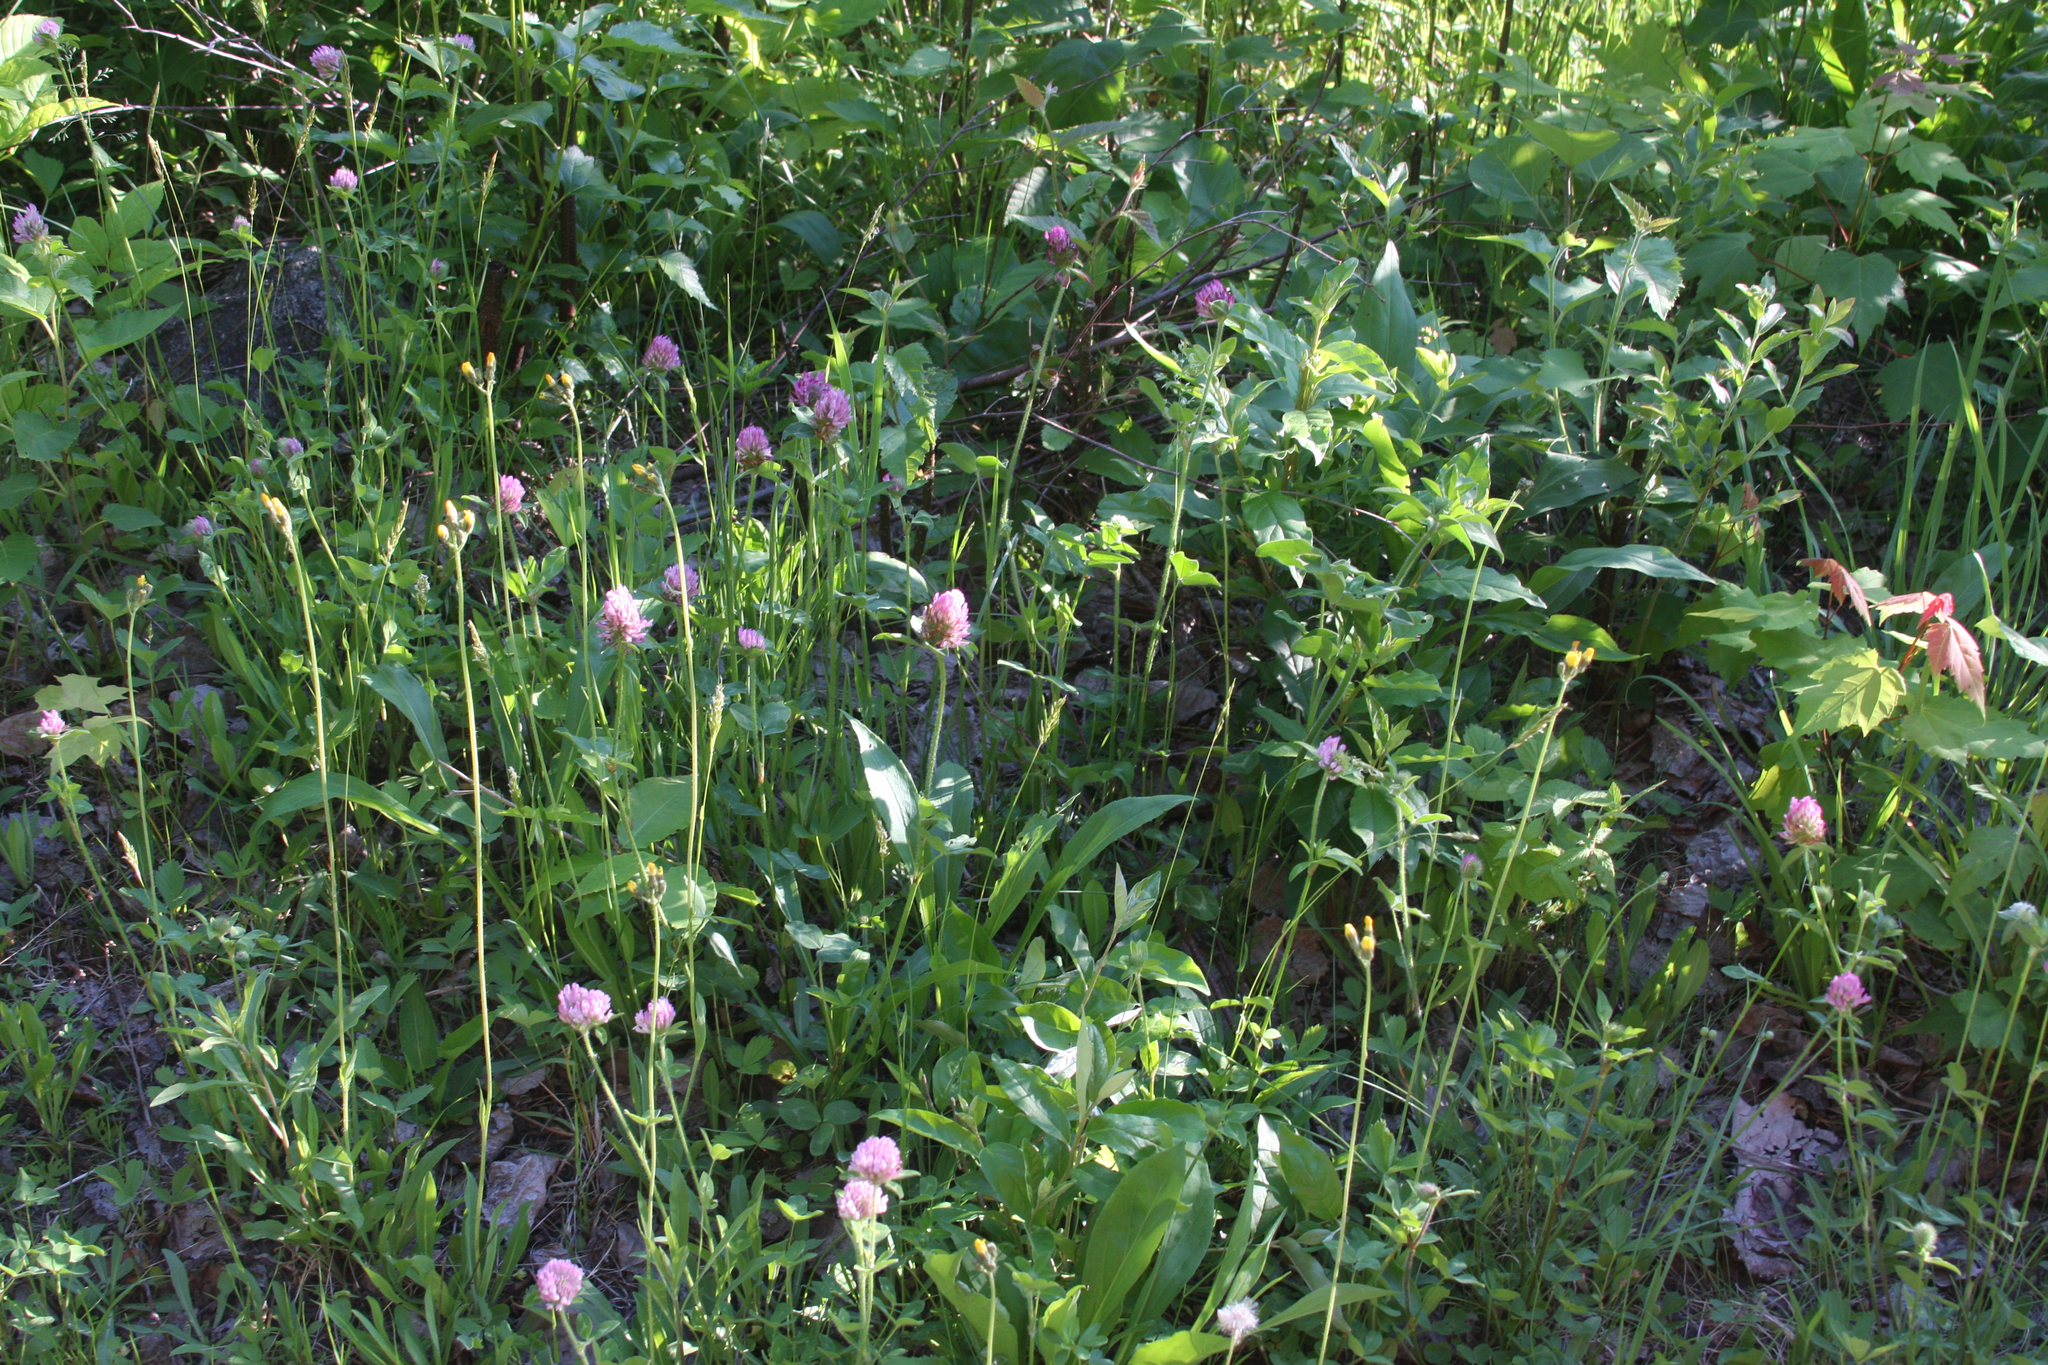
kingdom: Plantae
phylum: Tracheophyta
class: Magnoliopsida
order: Fabales
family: Fabaceae
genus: Trifolium
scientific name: Trifolium pratense
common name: Red clover
